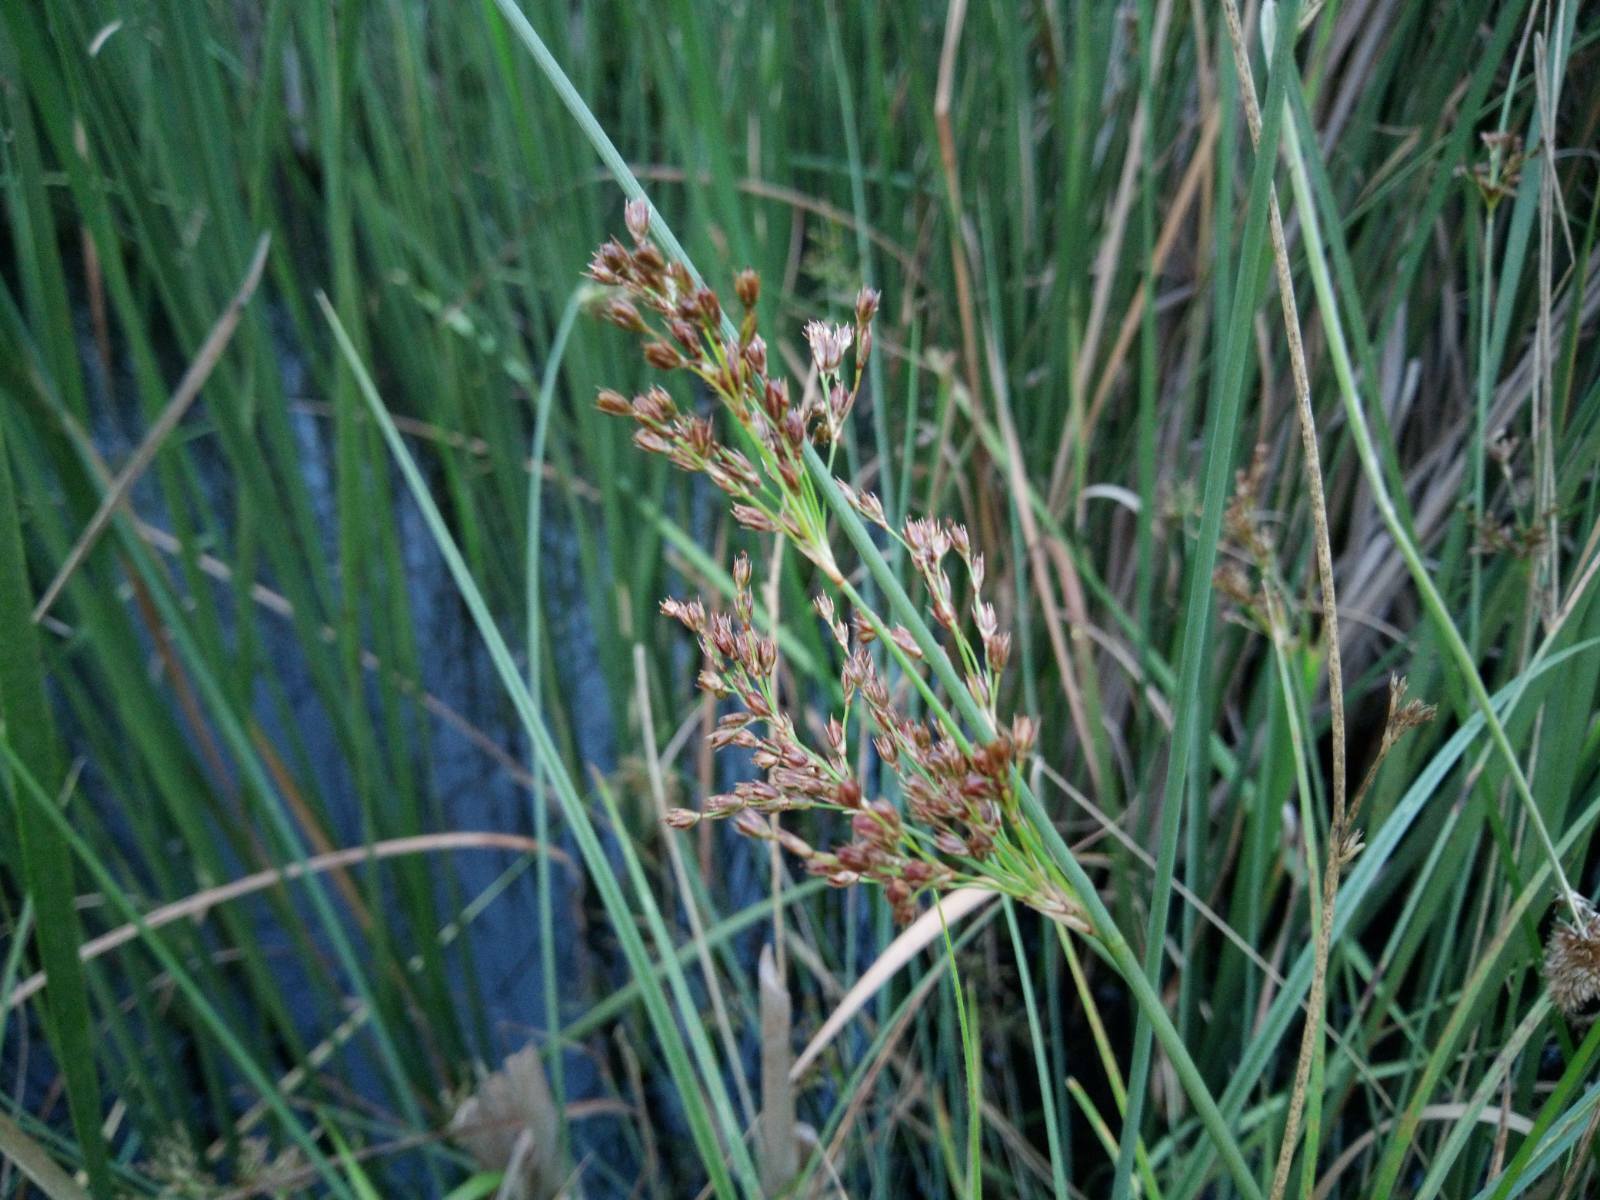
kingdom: Plantae
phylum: Tracheophyta
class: Liliopsida
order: Poales
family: Juncaceae
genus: Juncus
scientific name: Juncus inflexus
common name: Hard rush
